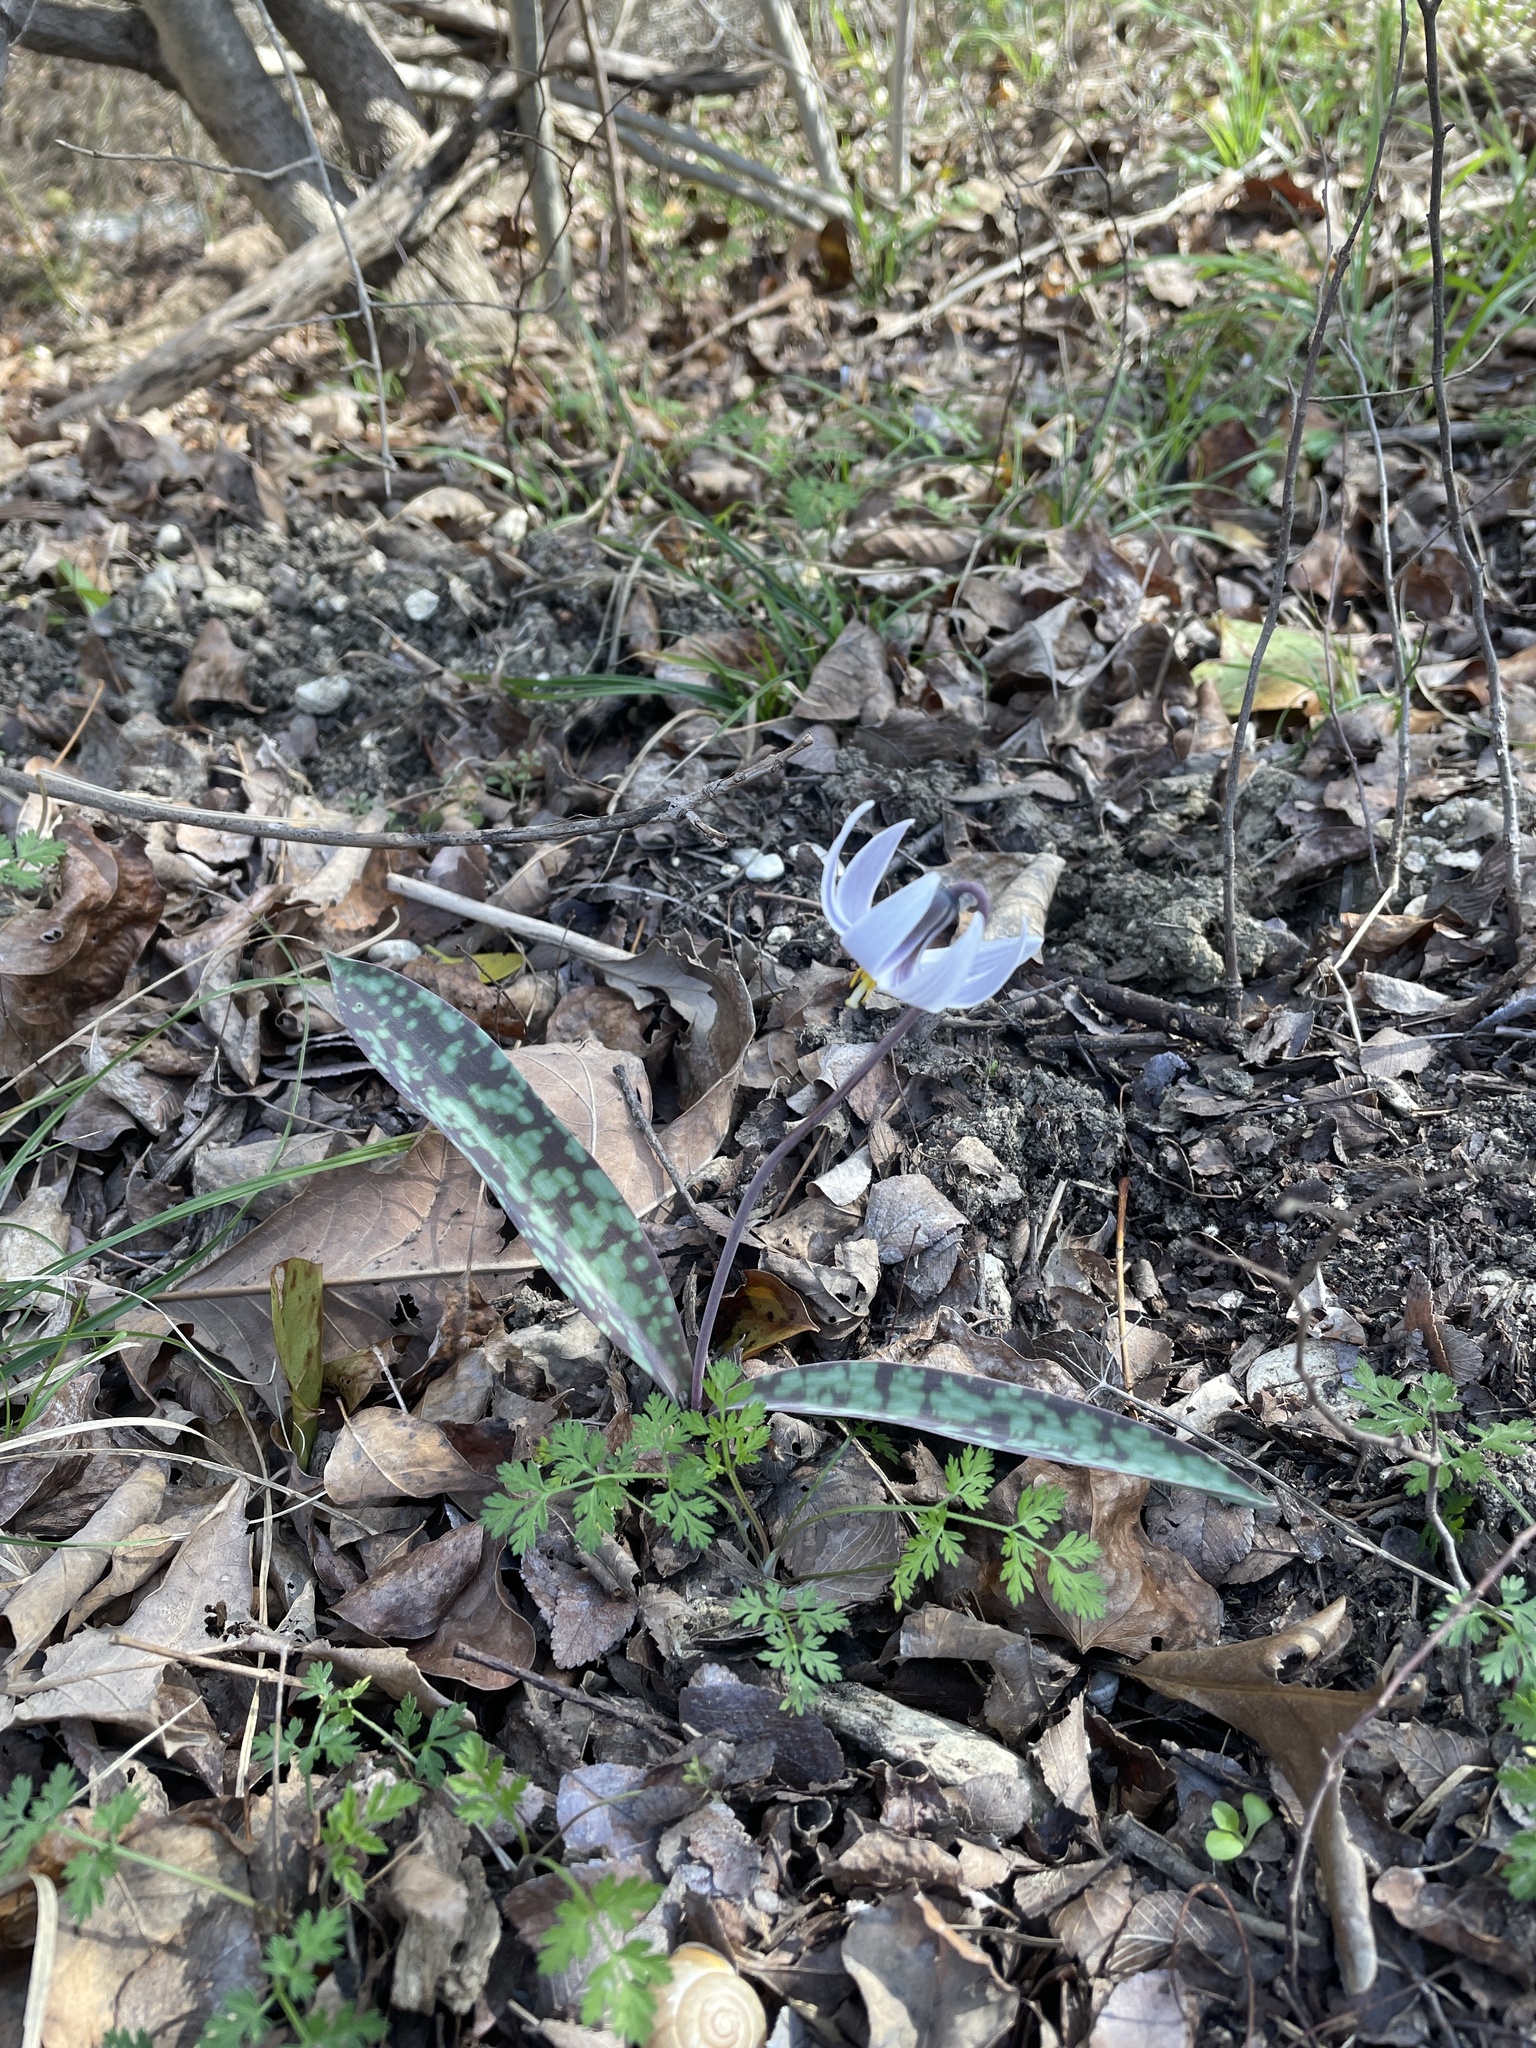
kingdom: Plantae
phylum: Tracheophyta
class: Liliopsida
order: Liliales
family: Liliaceae
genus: Erythronium
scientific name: Erythronium albidum
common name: White trout-lily
